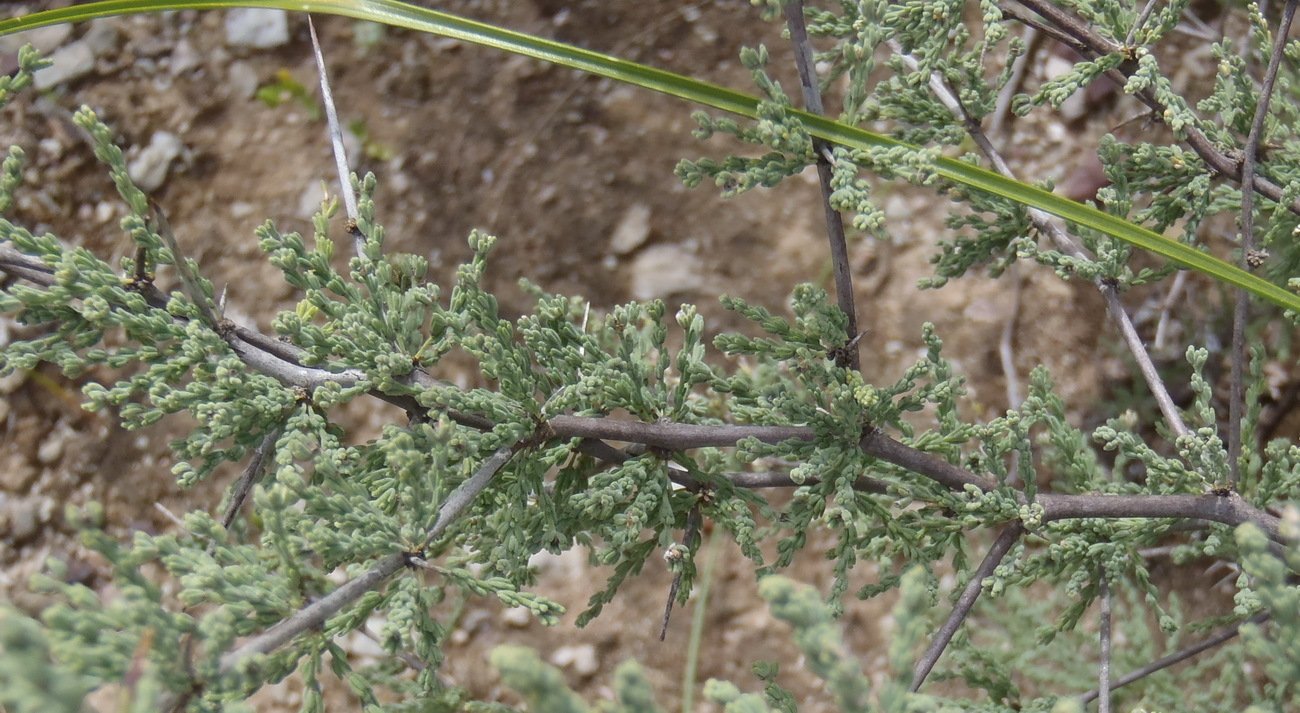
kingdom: Plantae
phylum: Tracheophyta
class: Liliopsida
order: Asparagales
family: Asparagaceae
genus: Asparagus
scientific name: Asparagus capensis
